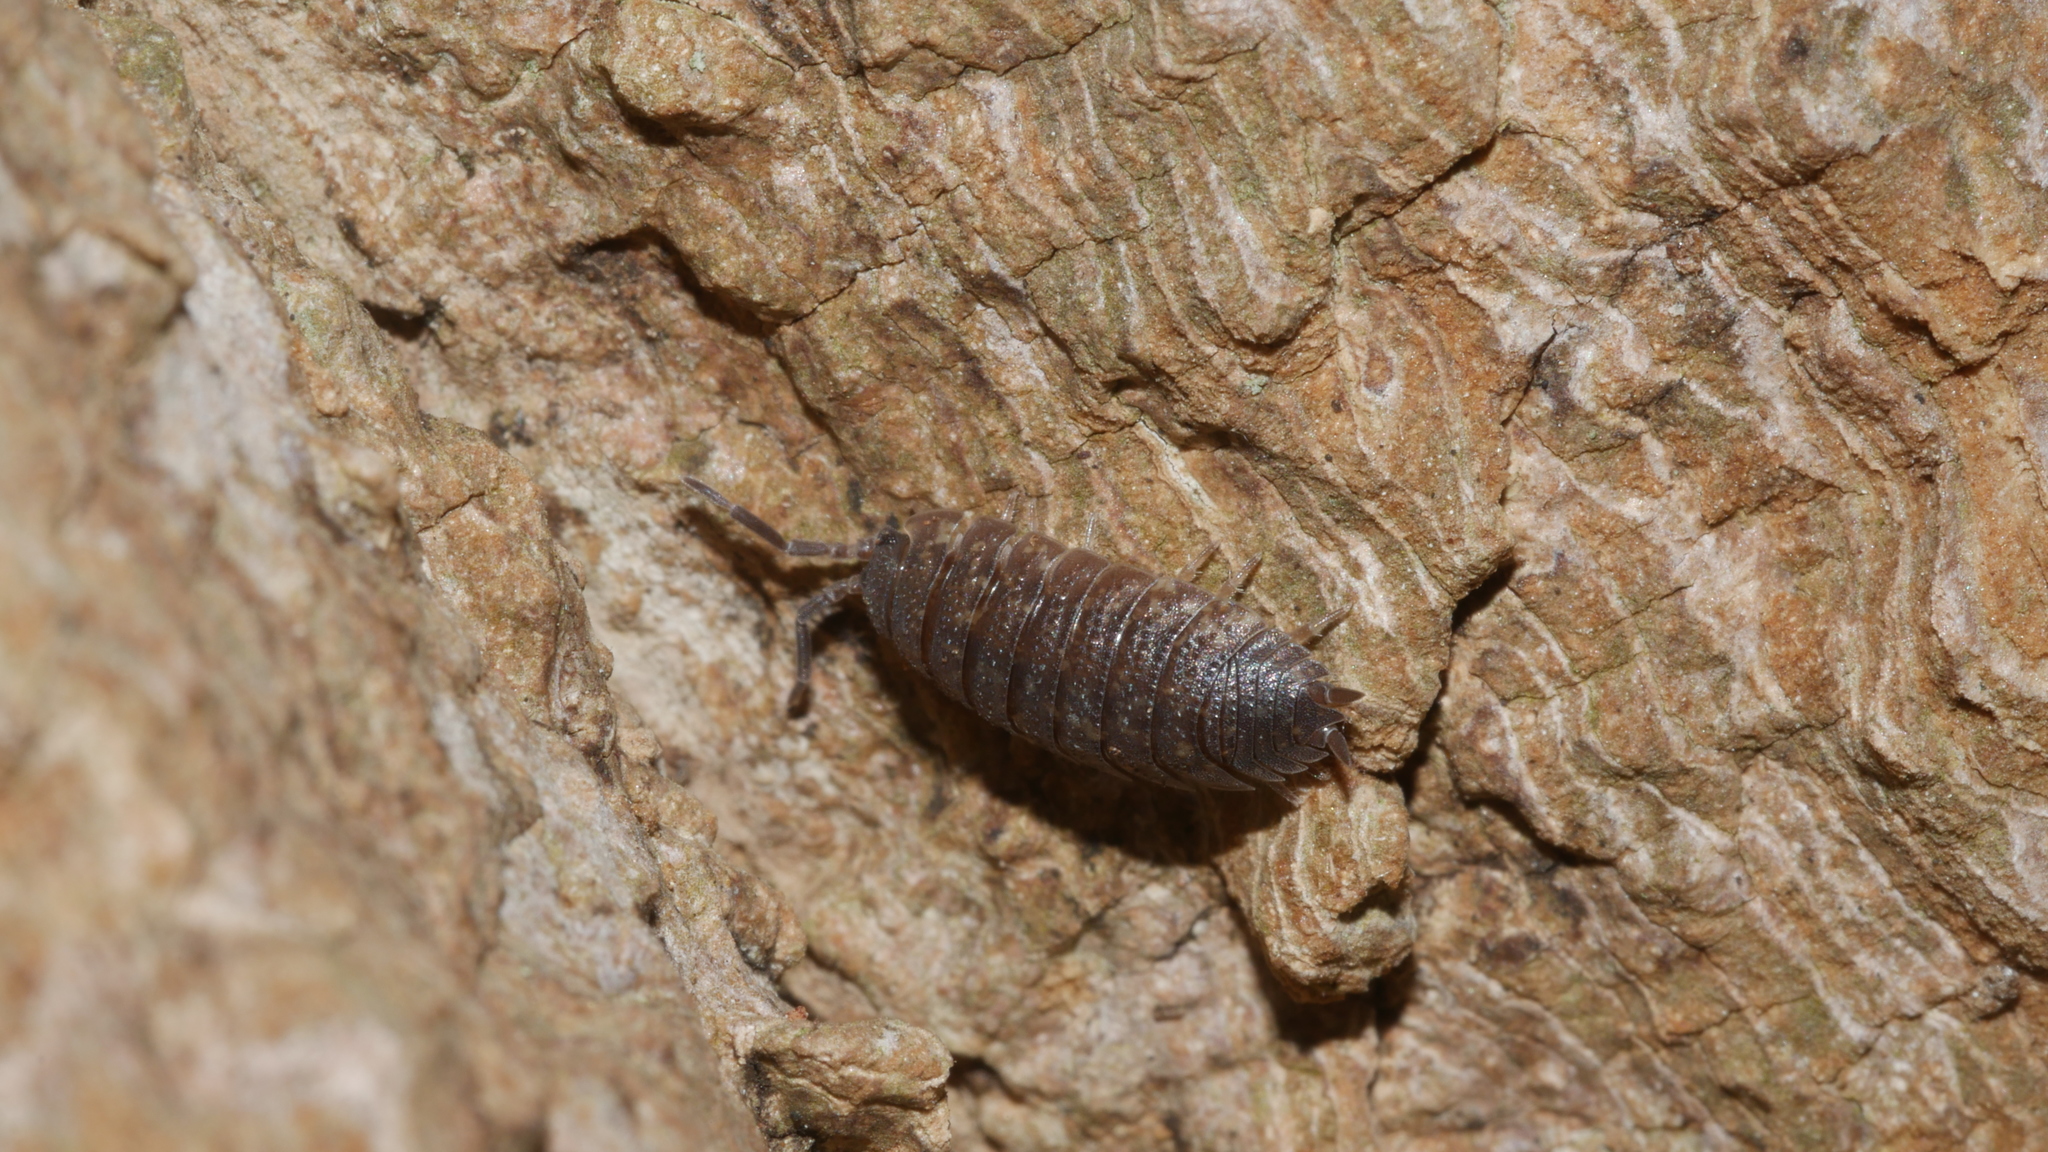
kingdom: Animalia
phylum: Arthropoda
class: Malacostraca
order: Isopoda
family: Porcellionidae
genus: Porcellio
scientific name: Porcellio scaber
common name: Common rough woodlouse
